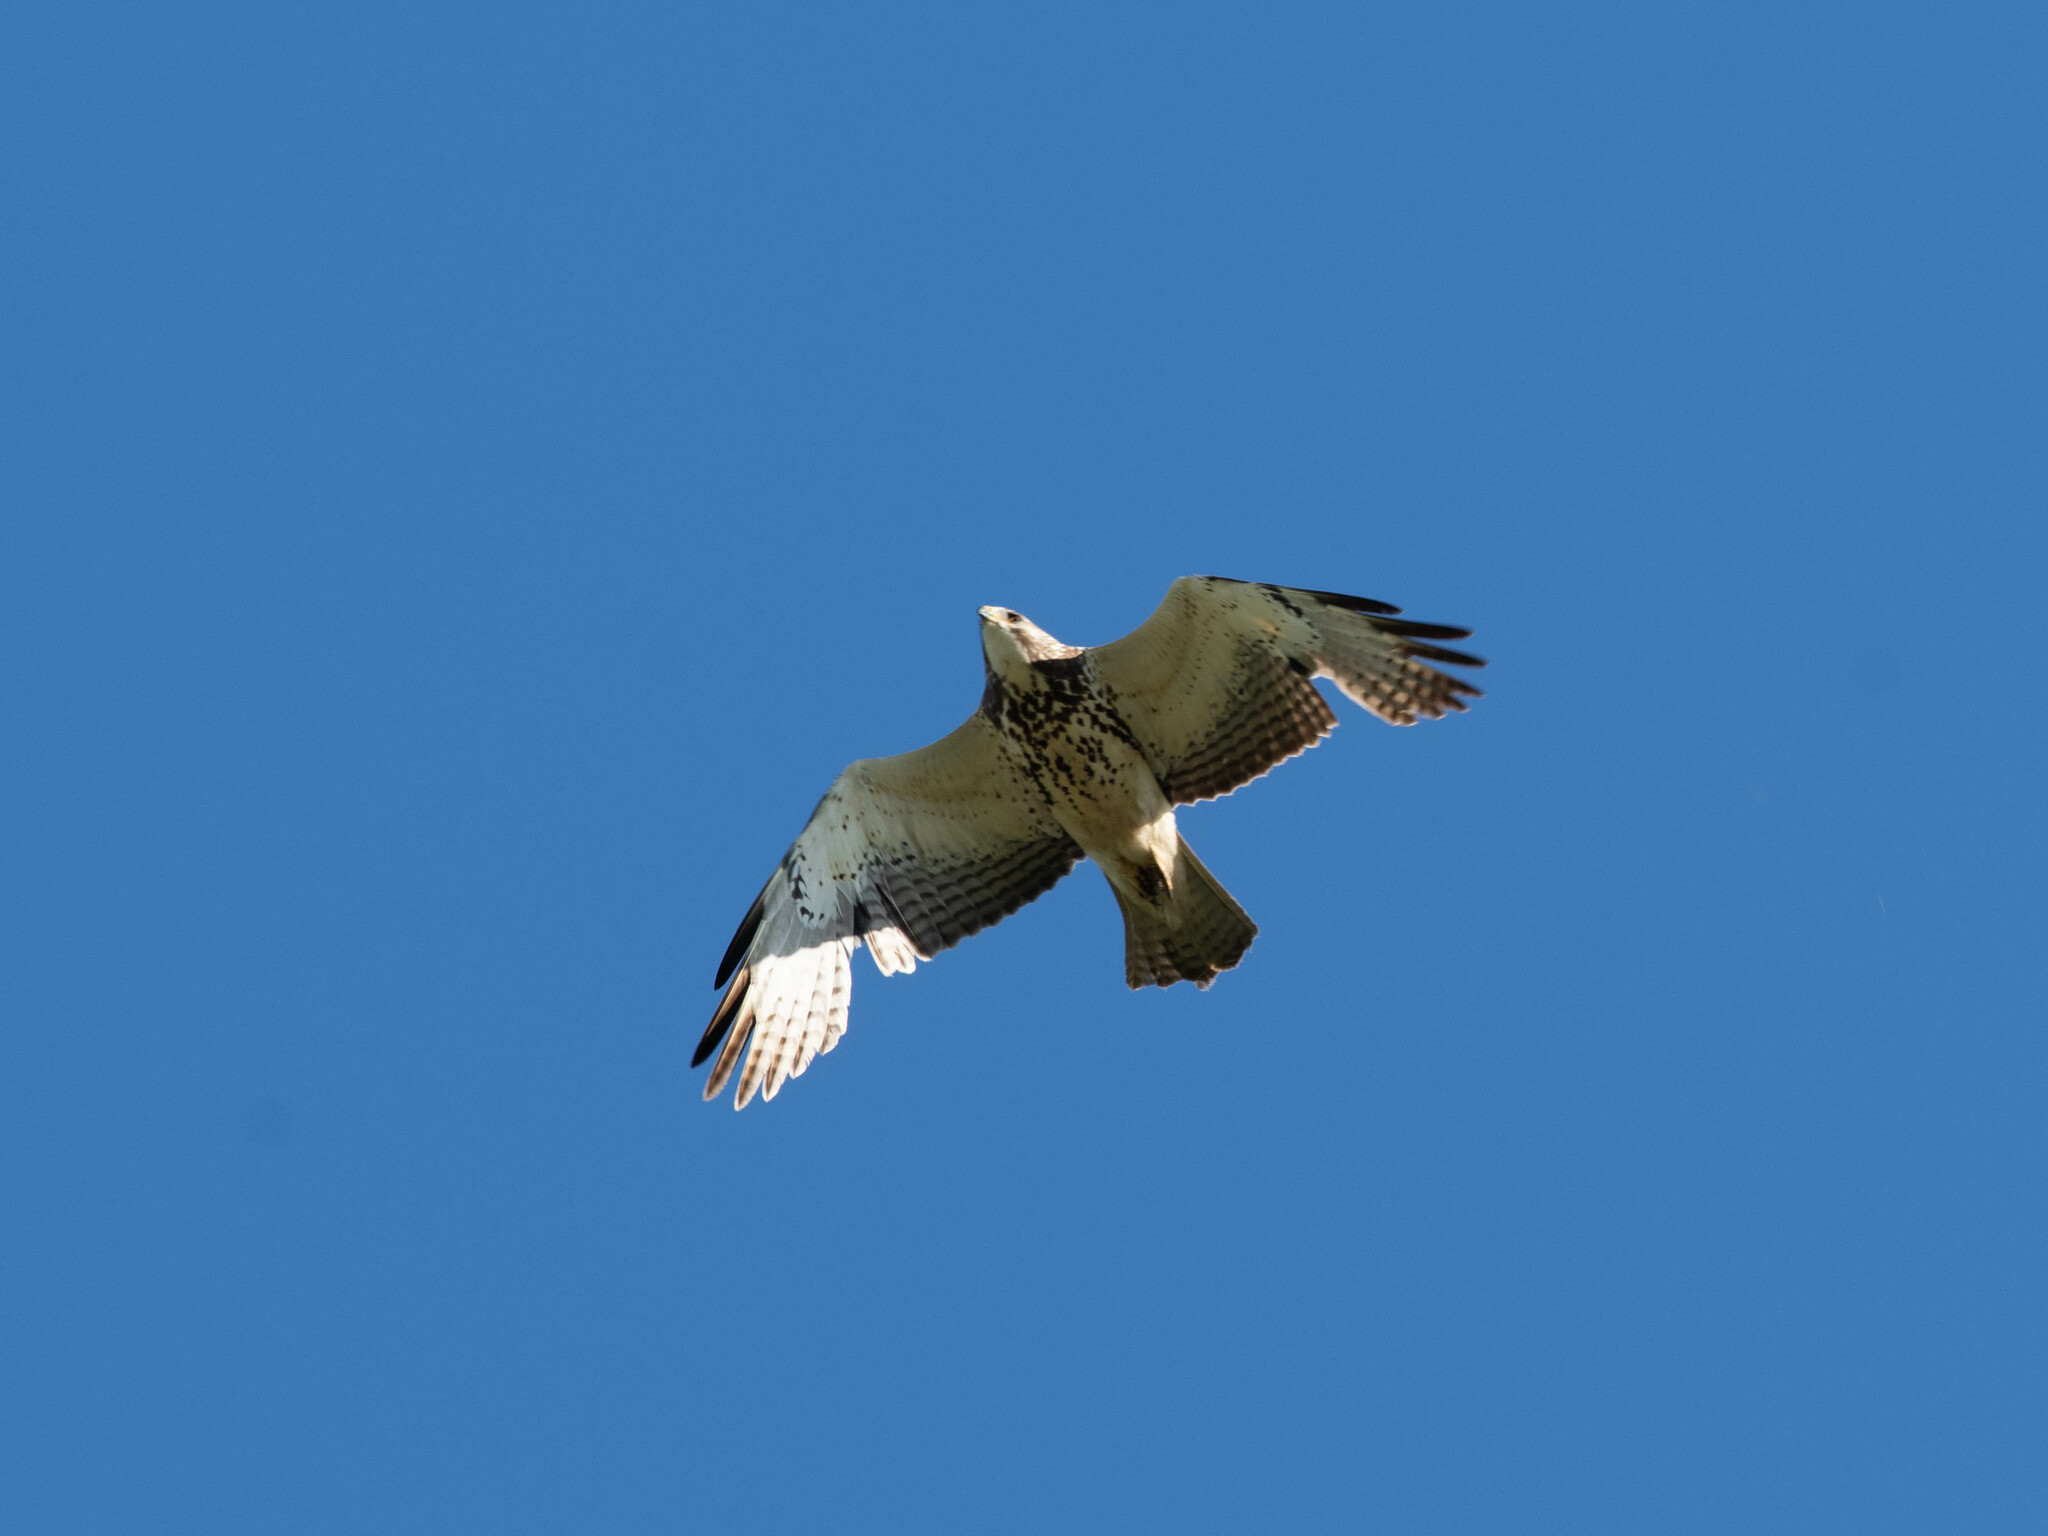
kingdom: Animalia
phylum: Chordata
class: Aves
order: Accipitriformes
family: Accipitridae
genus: Buteo
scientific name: Buteo swainsoni
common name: Swainson's hawk
